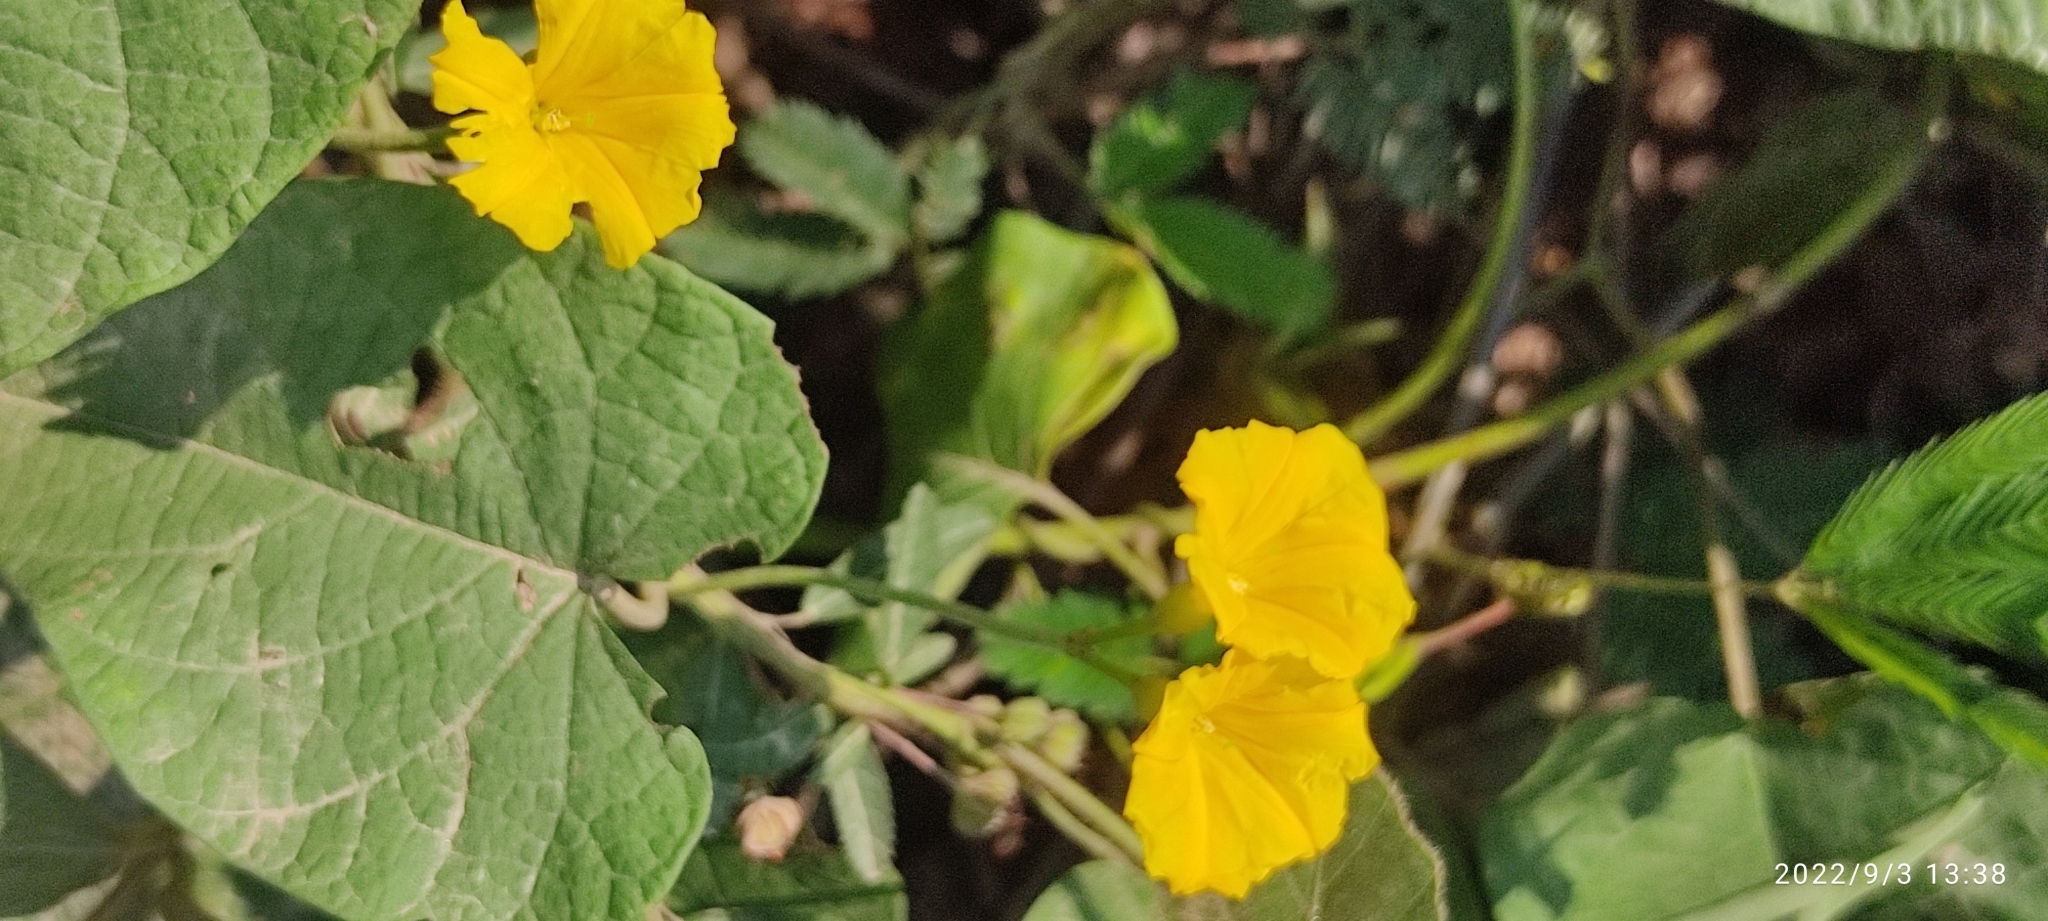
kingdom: Plantae
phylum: Tracheophyta
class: Magnoliopsida
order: Solanales
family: Convolvulaceae
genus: Camonea
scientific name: Camonea umbellata
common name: Hogvine
